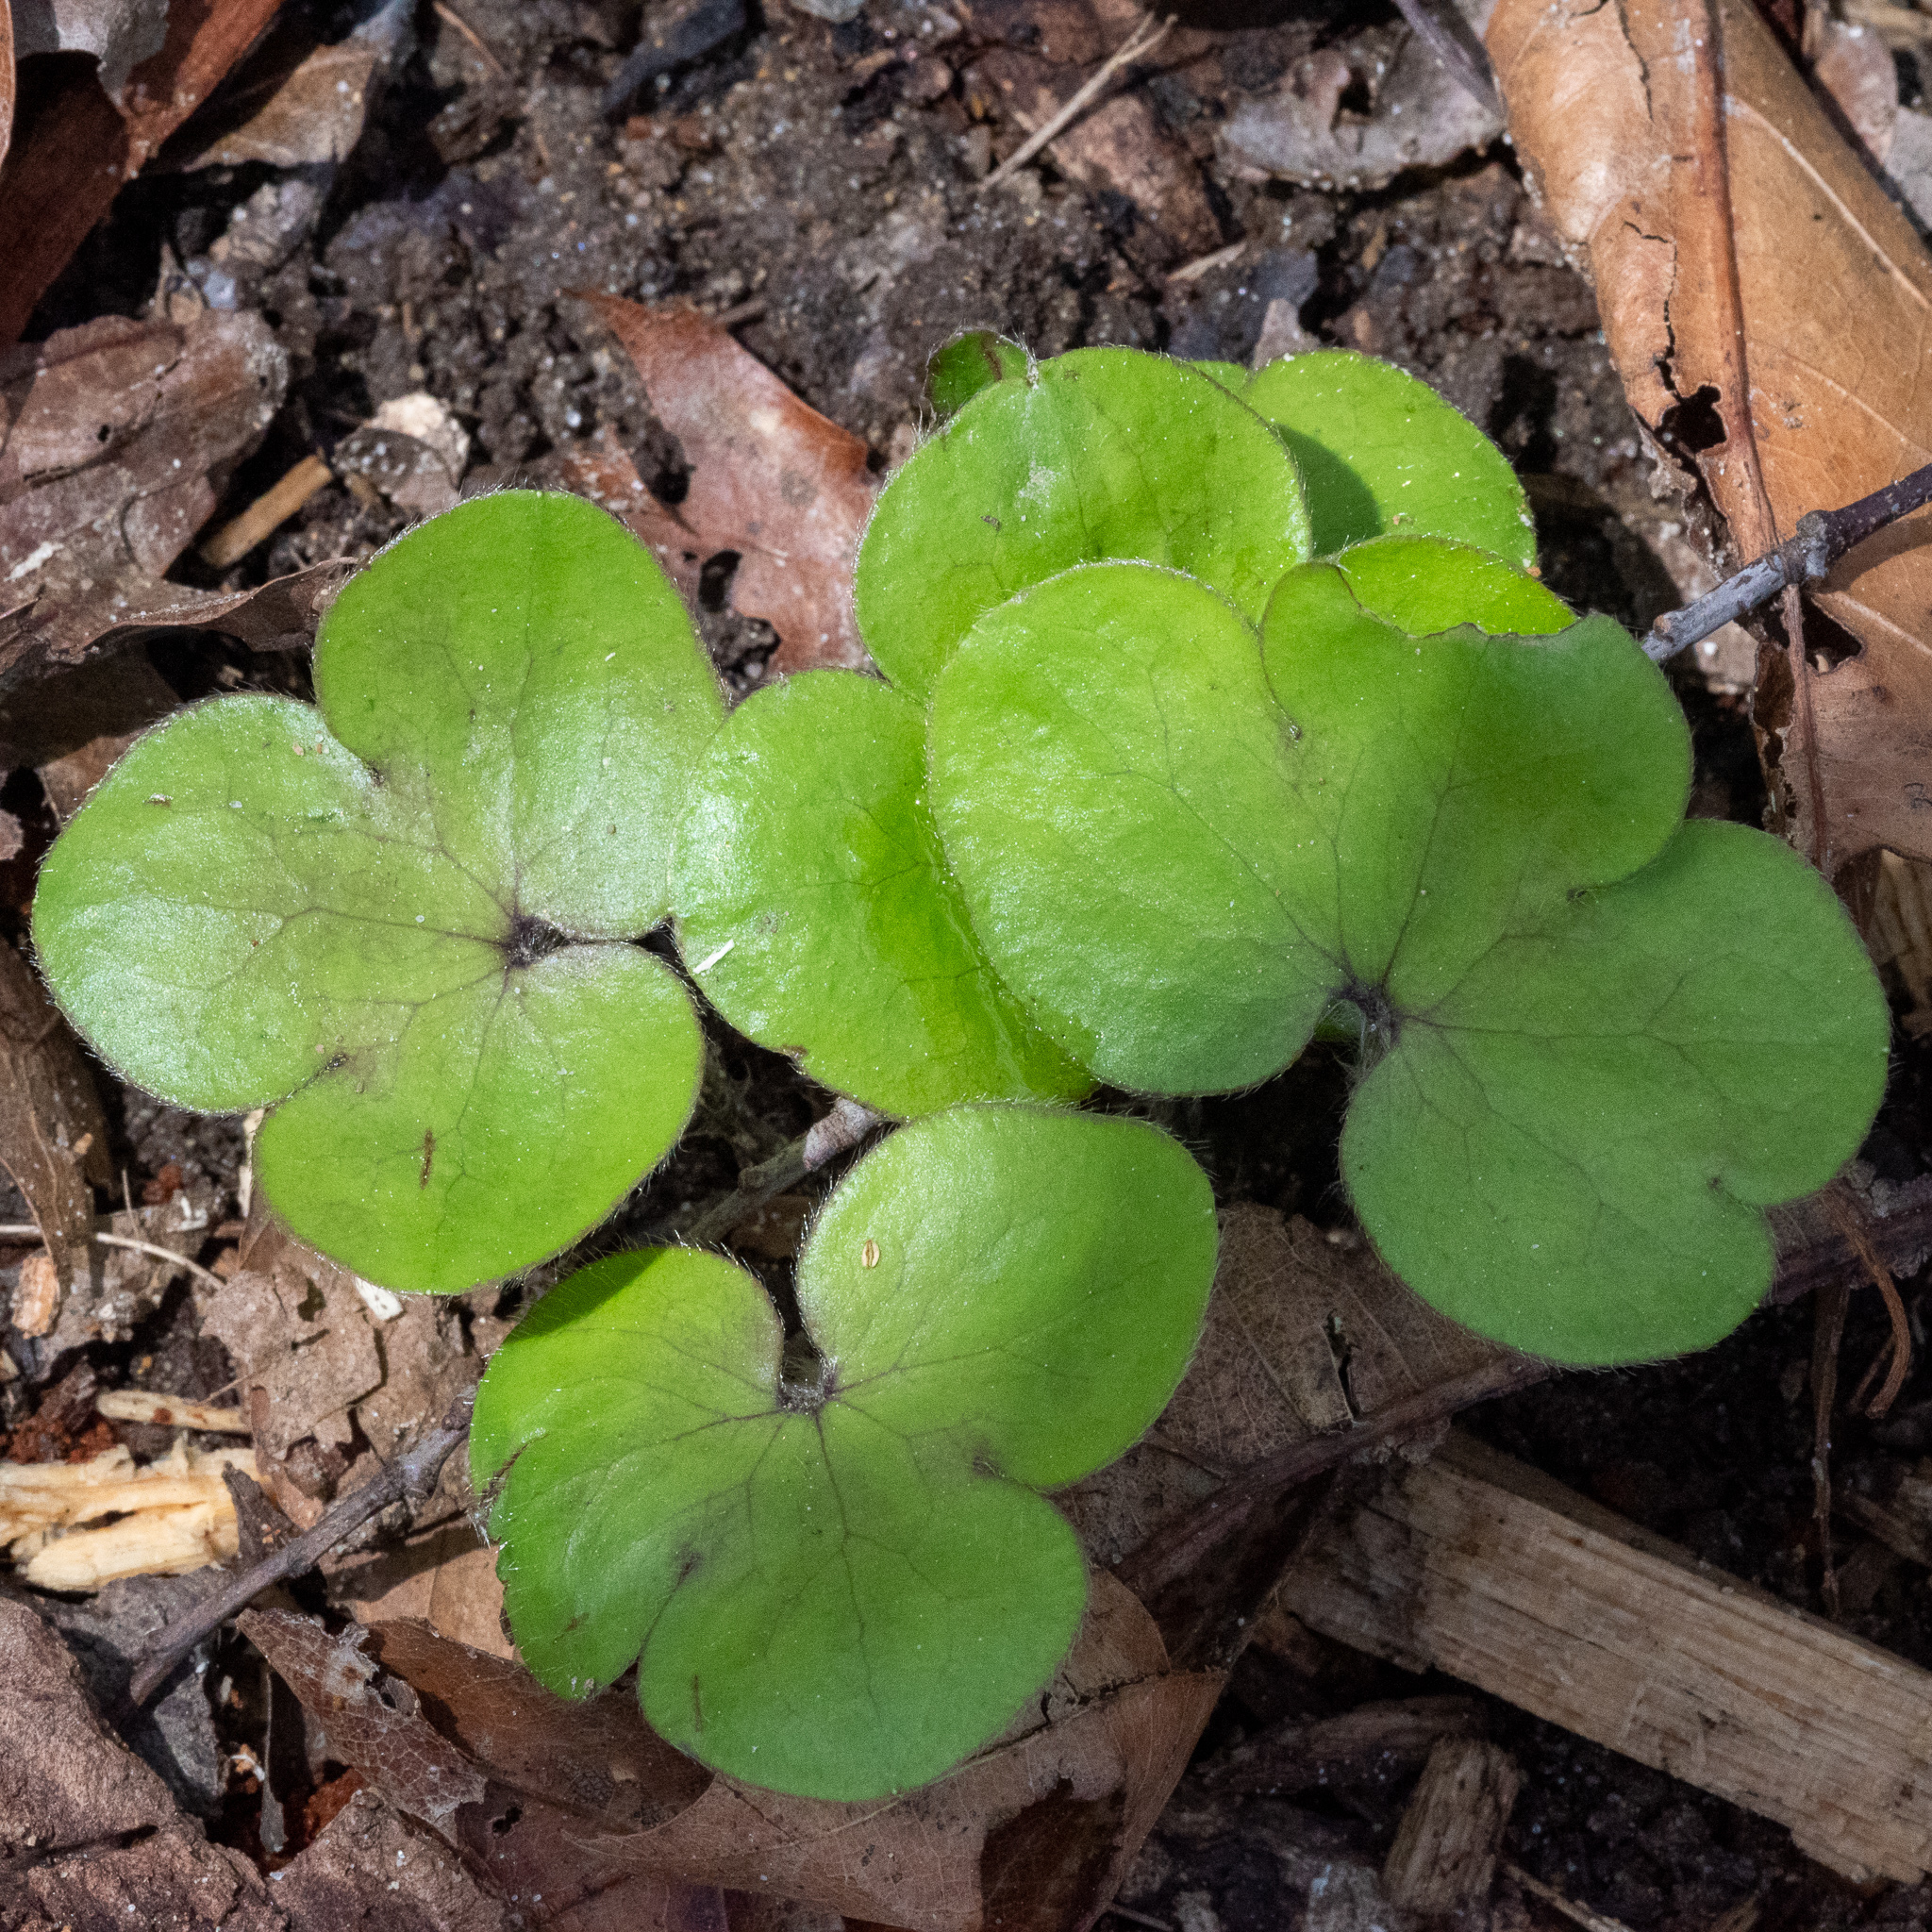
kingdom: Plantae
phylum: Tracheophyta
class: Magnoliopsida
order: Ranunculales
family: Ranunculaceae
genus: Hepatica
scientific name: Hepatica americana
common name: American hepatica
